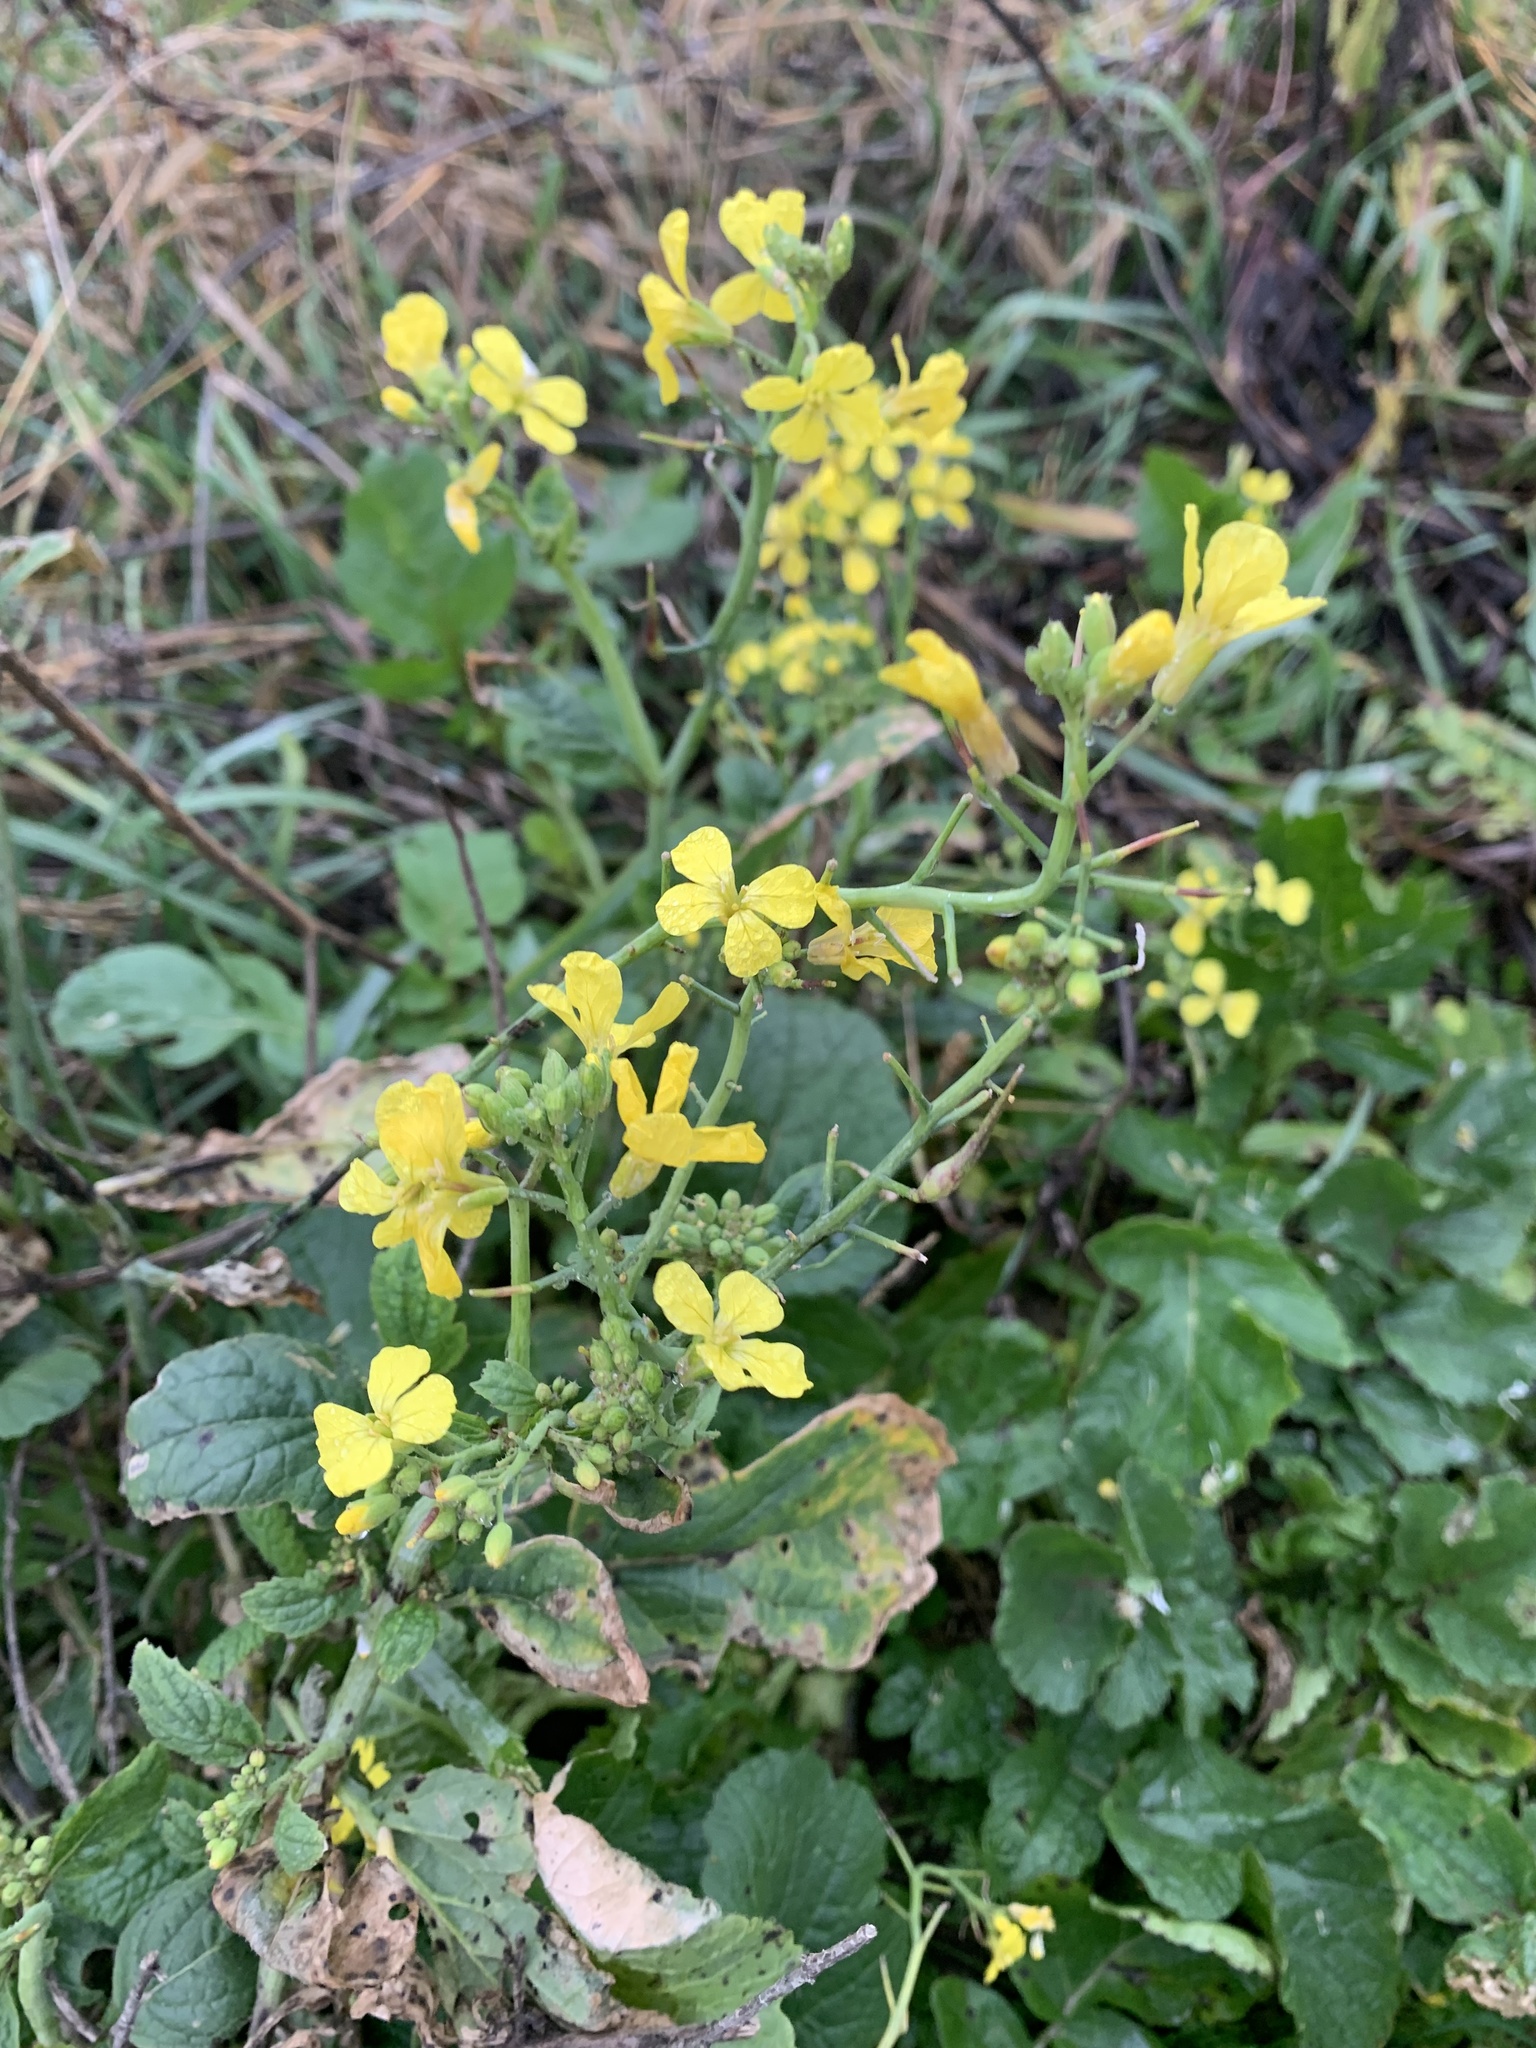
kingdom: Plantae
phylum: Tracheophyta
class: Magnoliopsida
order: Brassicales
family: Brassicaceae
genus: Raphanus
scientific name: Raphanus raphanistrum
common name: Wild radish
